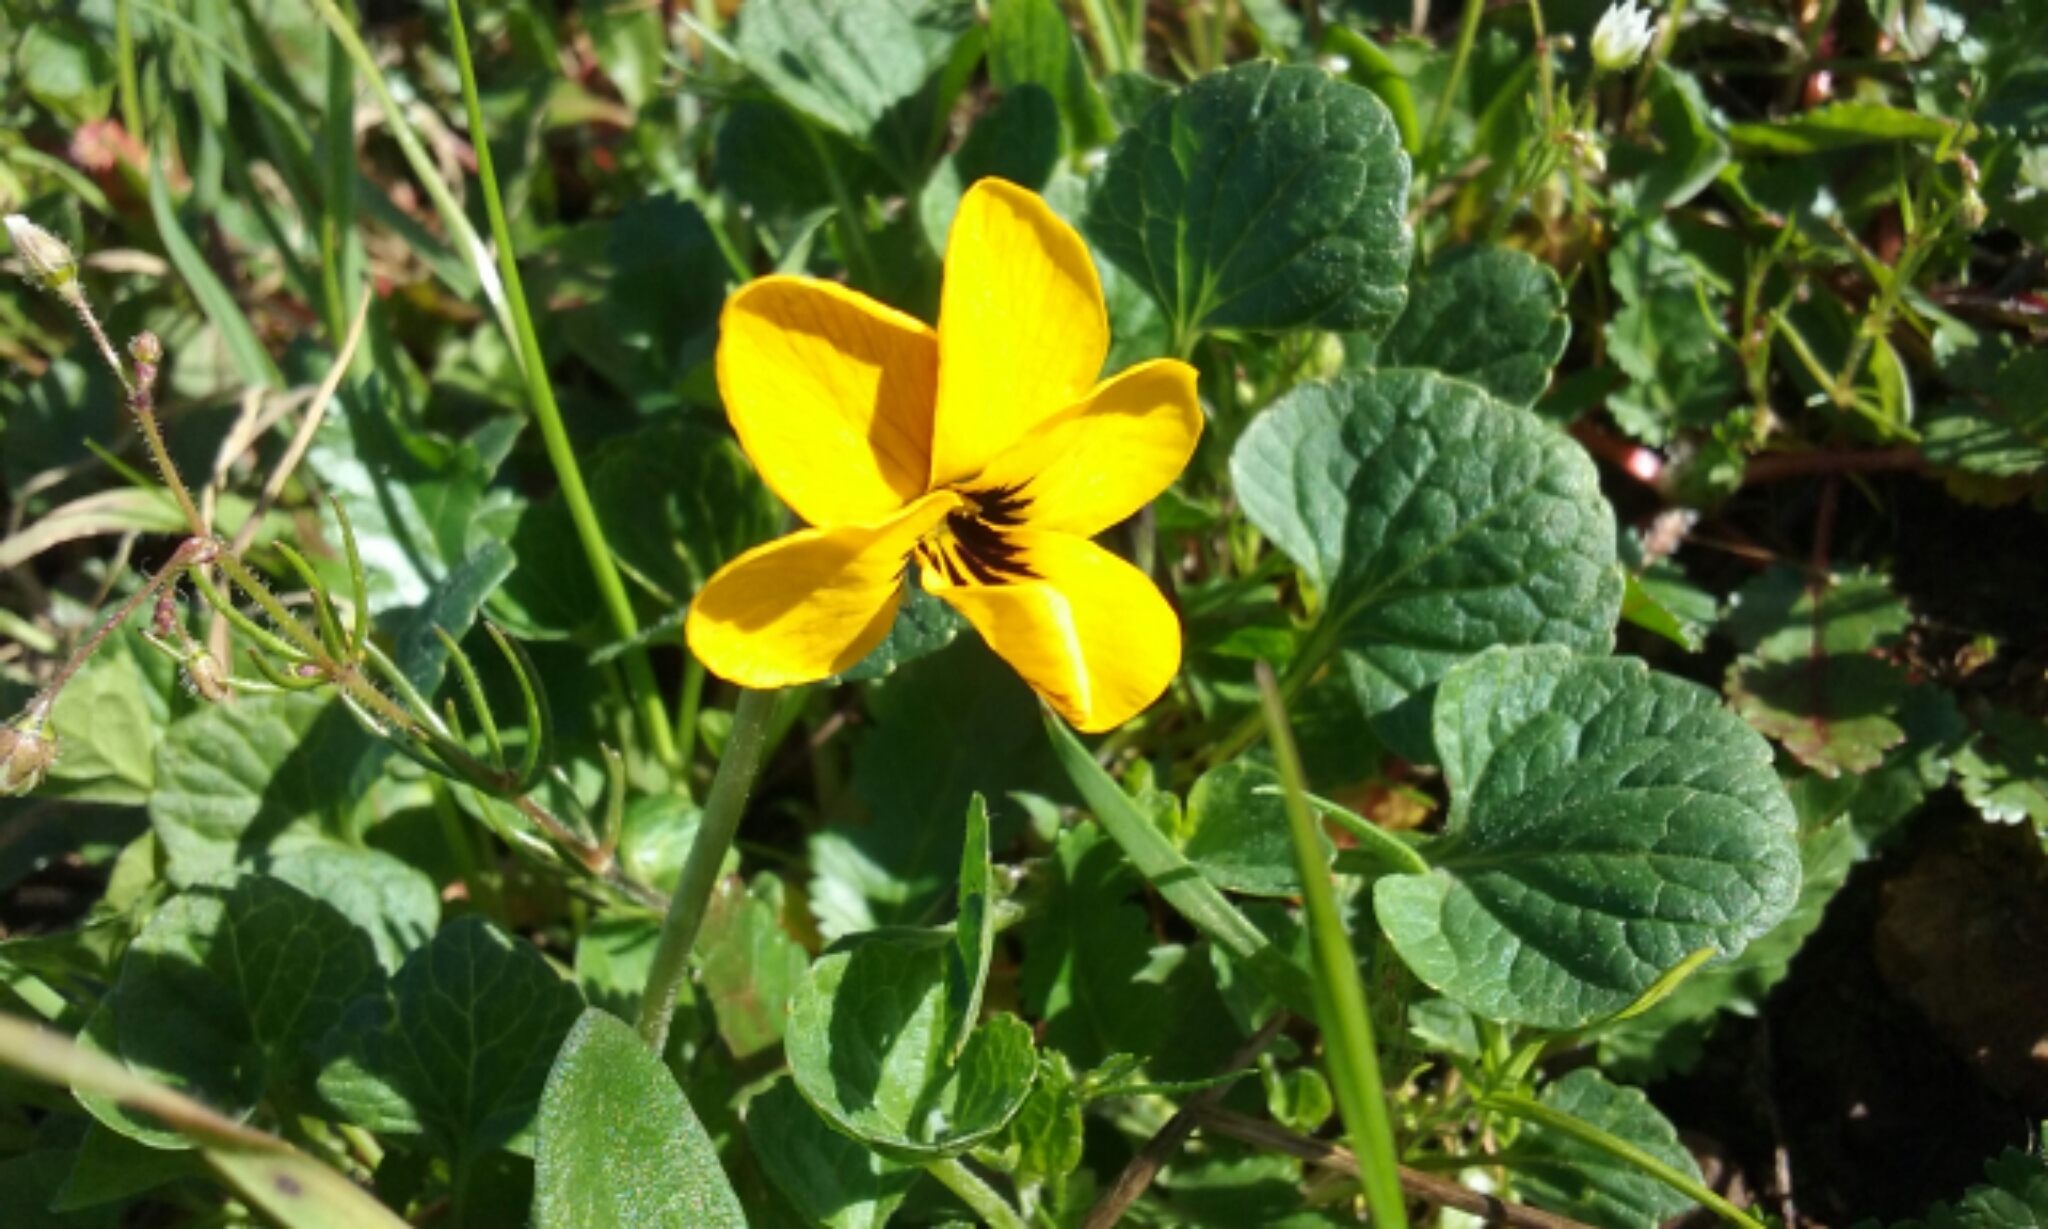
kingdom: Plantae
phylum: Tracheophyta
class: Magnoliopsida
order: Malpighiales
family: Violaceae
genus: Viola
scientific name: Viola pedunculata
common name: California golden violet
